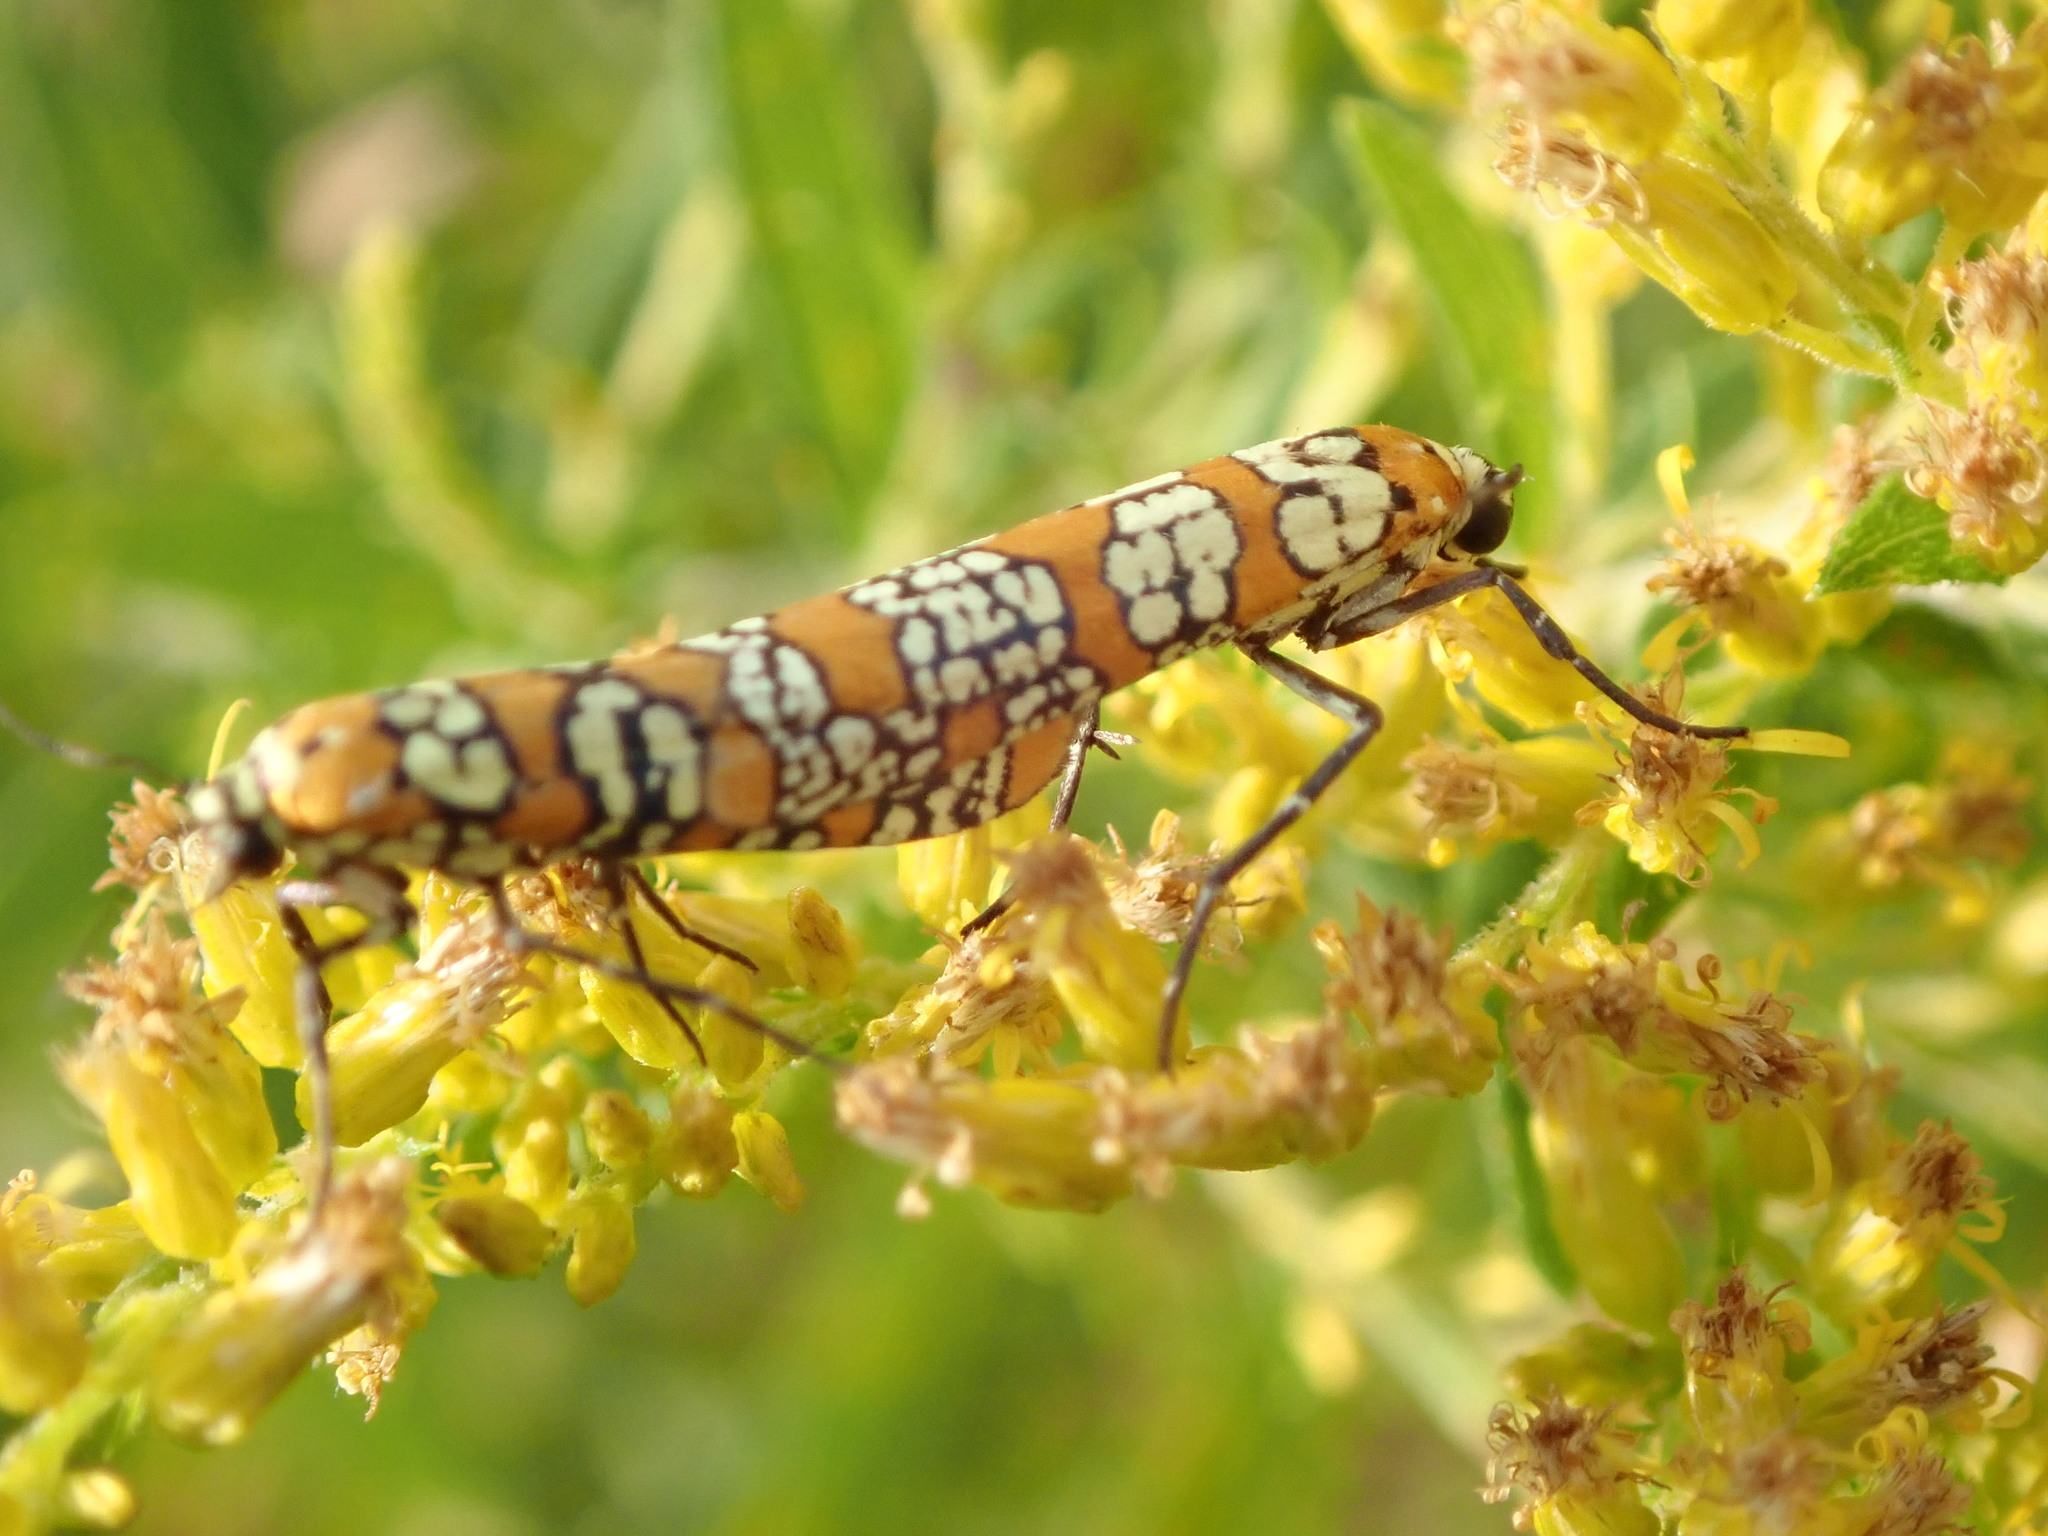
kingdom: Animalia
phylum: Arthropoda
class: Insecta
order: Lepidoptera
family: Attevidae
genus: Atteva
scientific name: Atteva punctella
